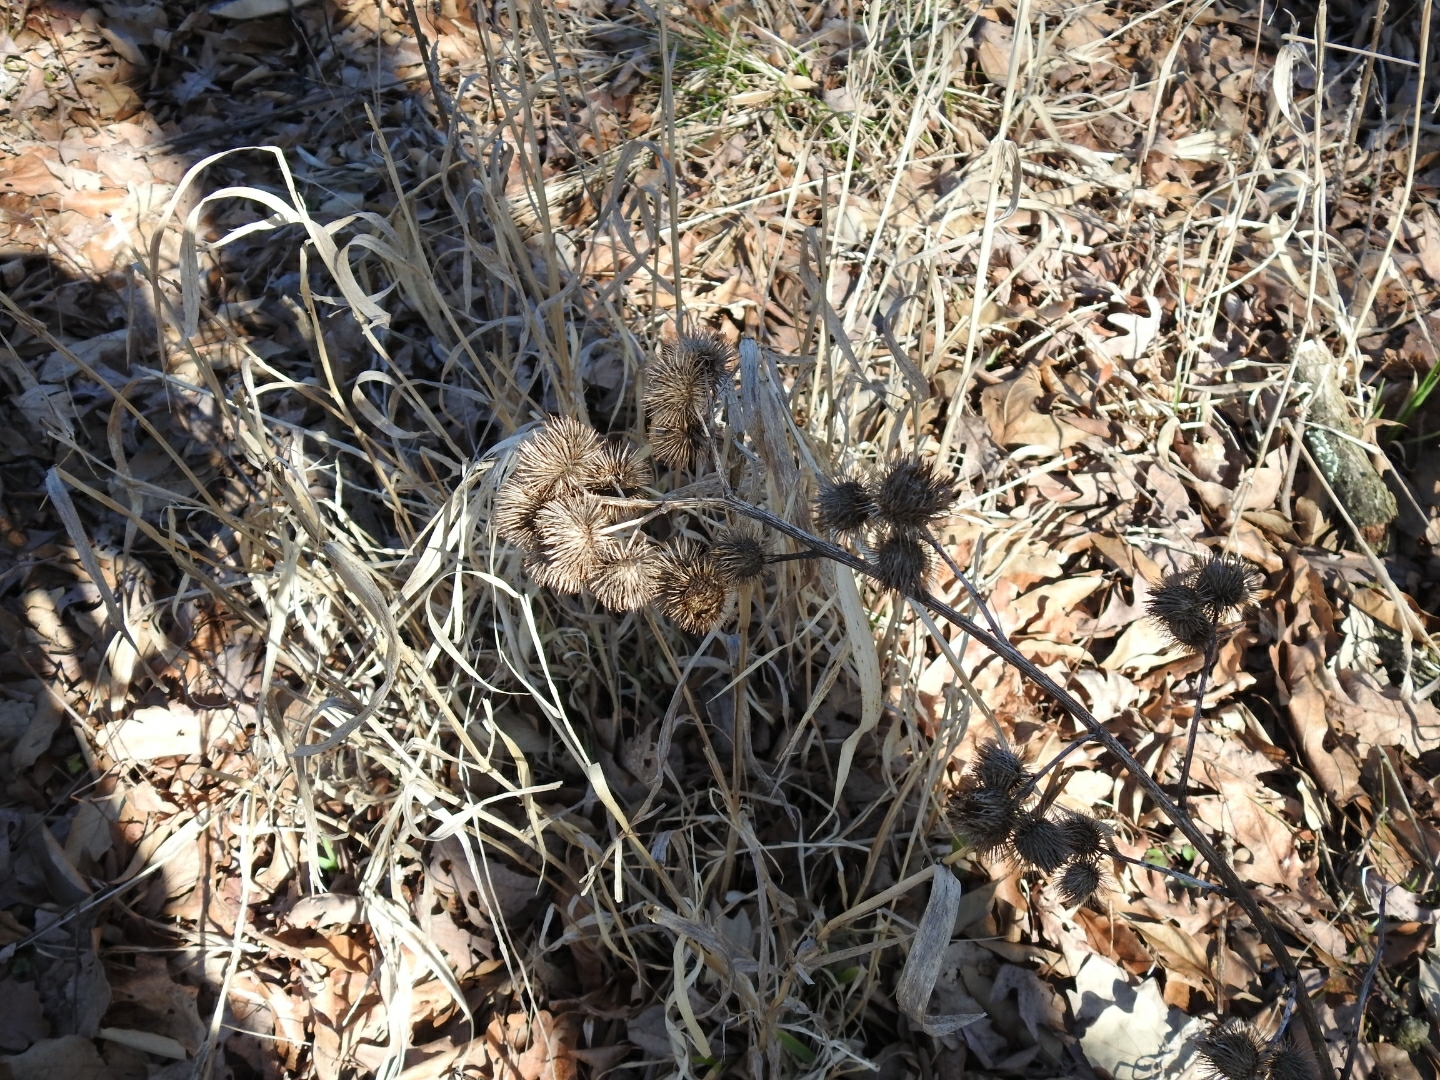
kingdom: Plantae
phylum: Tracheophyta
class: Magnoliopsida
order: Asterales
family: Asteraceae
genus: Arctium
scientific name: Arctium minus
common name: Lesser burdock
